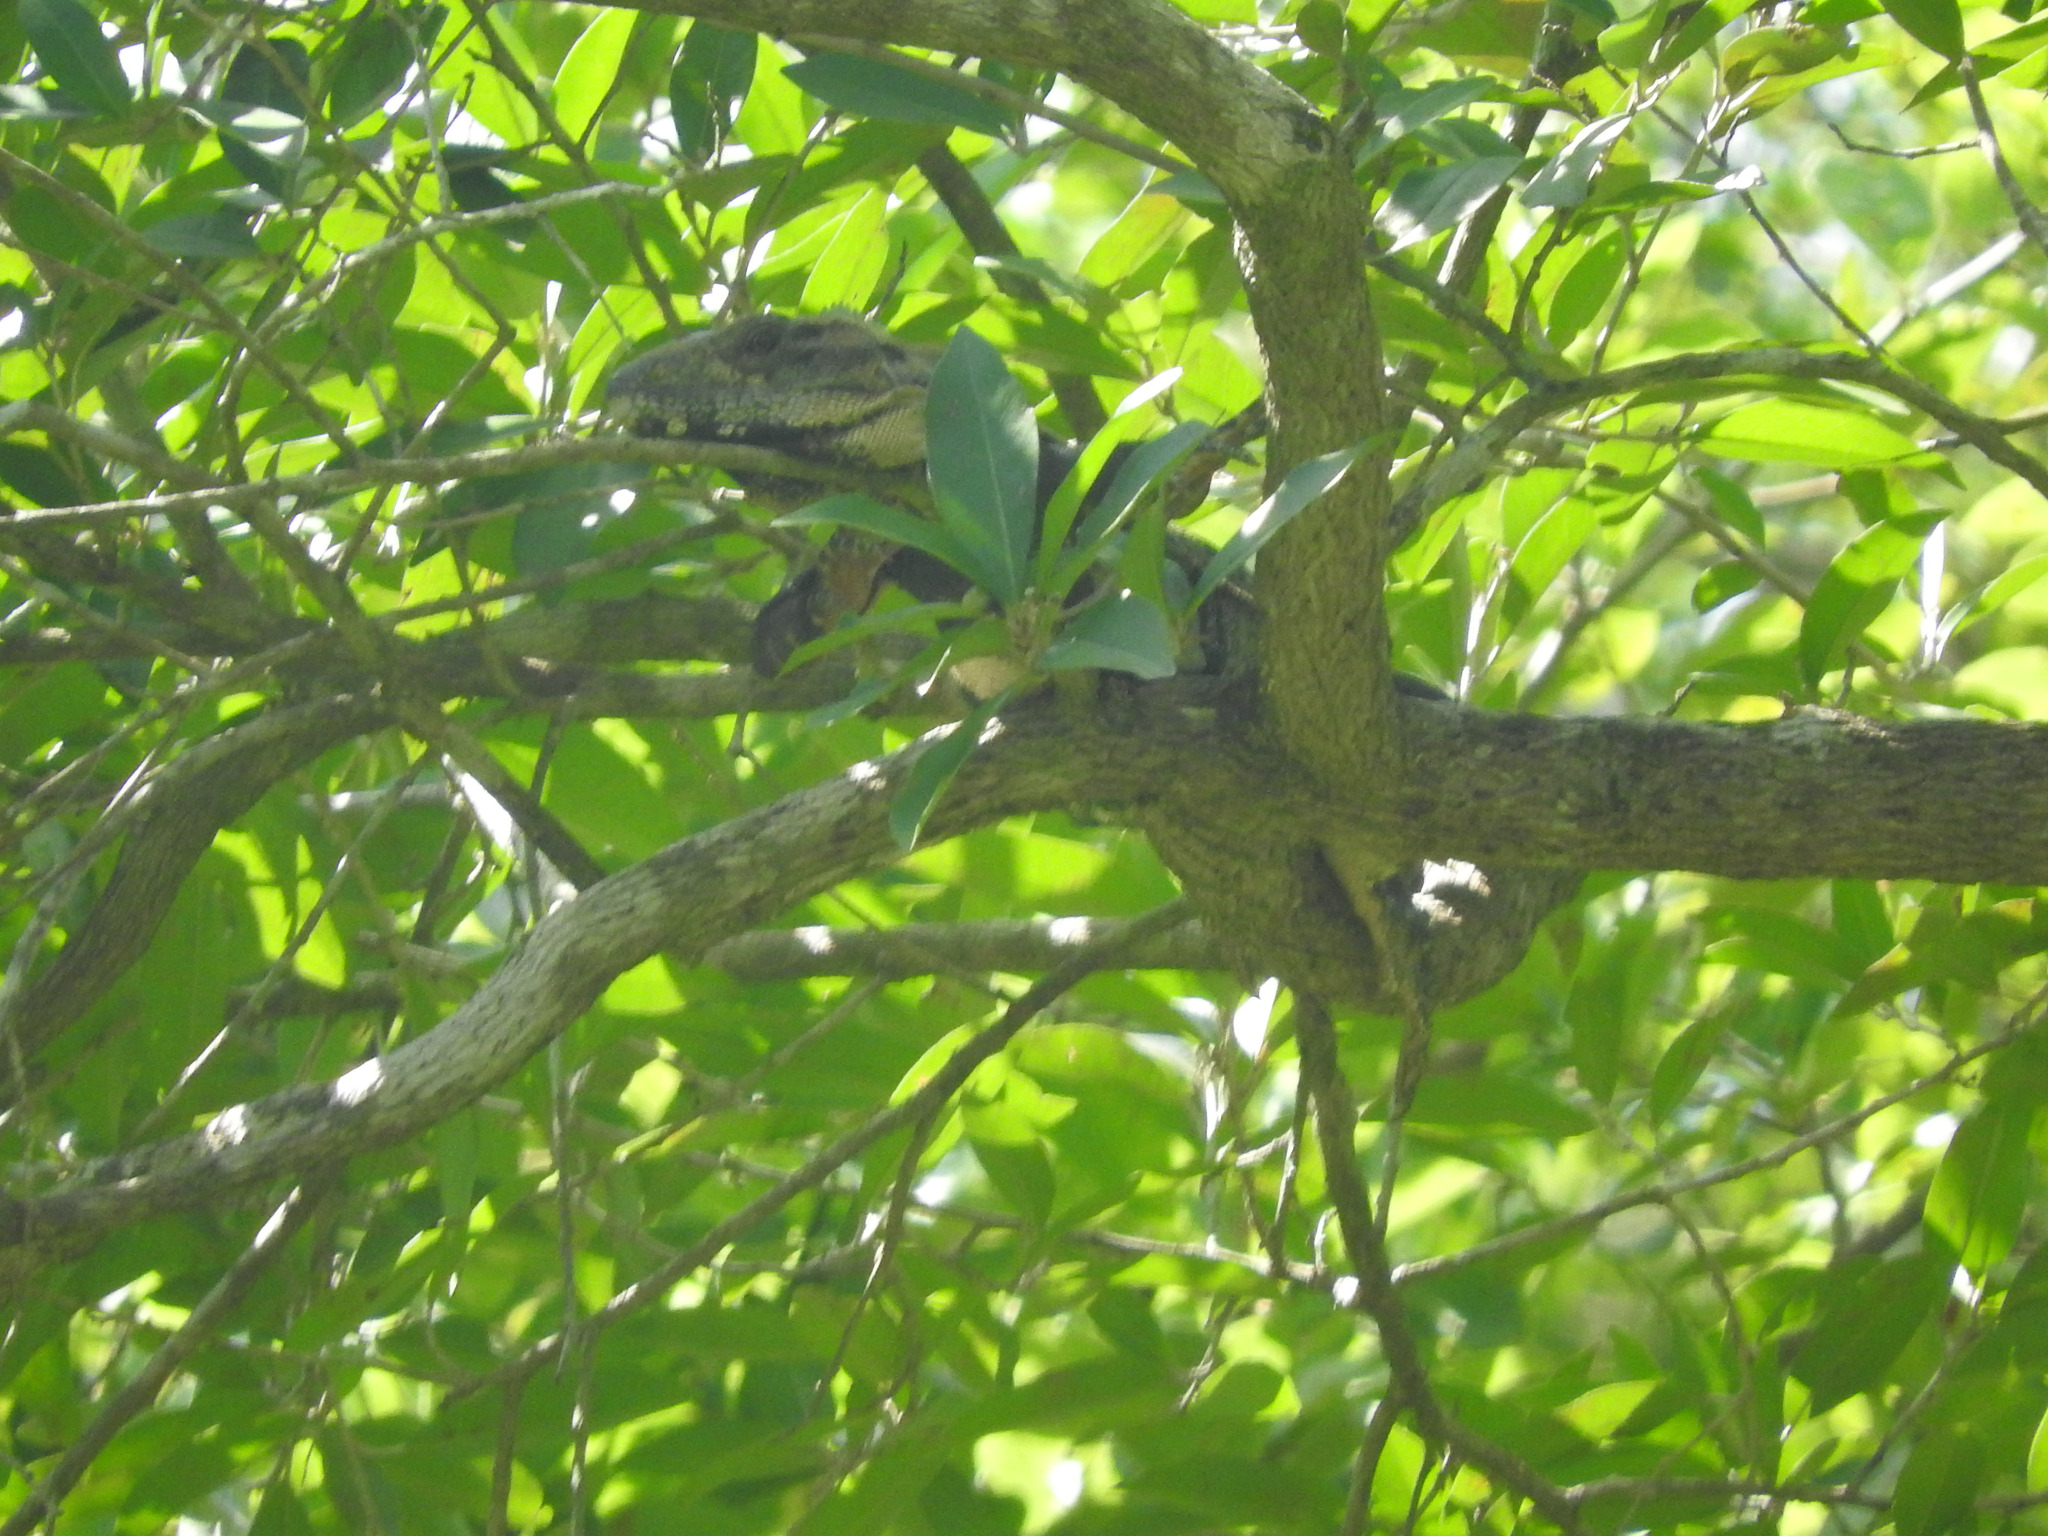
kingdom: Animalia
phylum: Chordata
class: Squamata
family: Iguanidae
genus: Ctenosaura
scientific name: Ctenosaura similis
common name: Black spiny-tailed iguana
